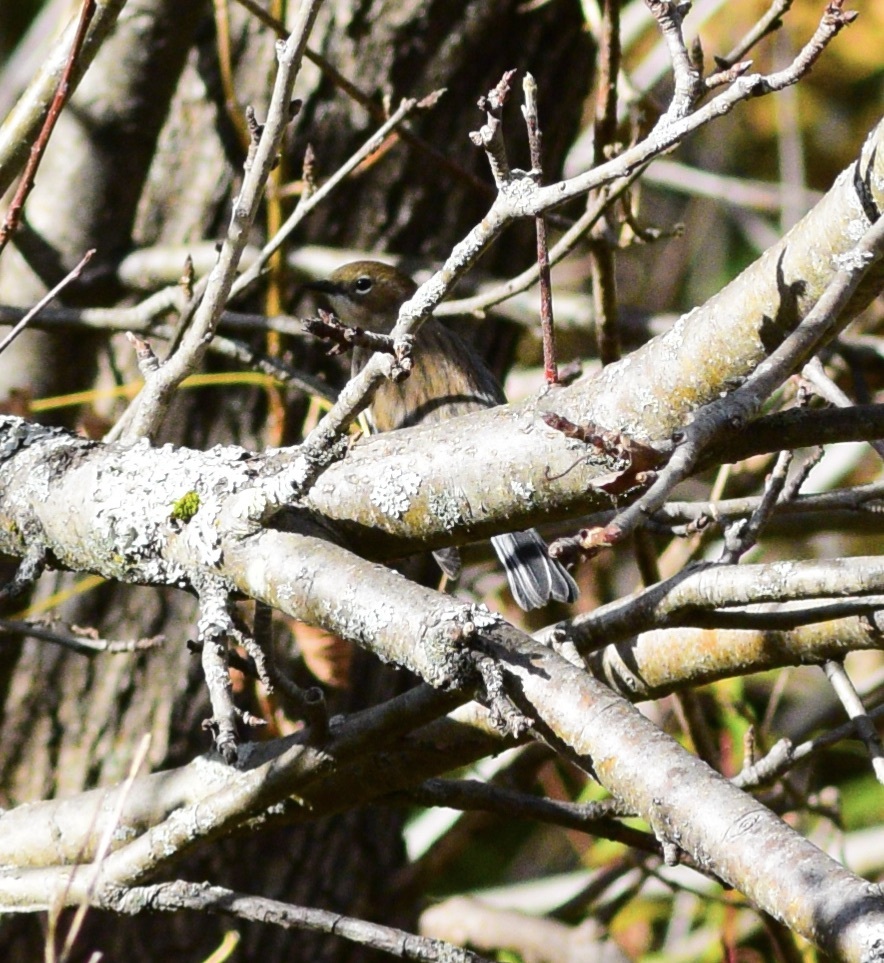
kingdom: Animalia
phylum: Chordata
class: Aves
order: Passeriformes
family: Parulidae
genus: Setophaga
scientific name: Setophaga coronata
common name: Myrtle warbler
